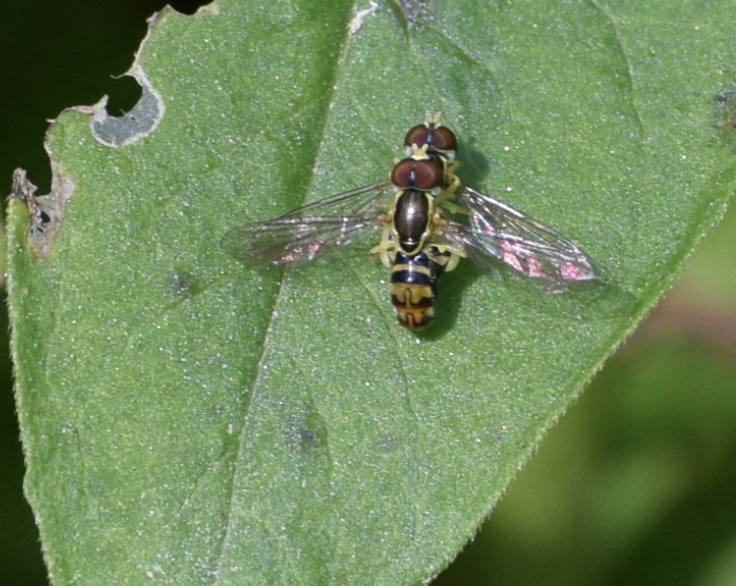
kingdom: Animalia
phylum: Arthropoda
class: Insecta
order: Diptera
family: Syrphidae
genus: Toxomerus
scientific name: Toxomerus geminatus
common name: Eastern calligrapher
